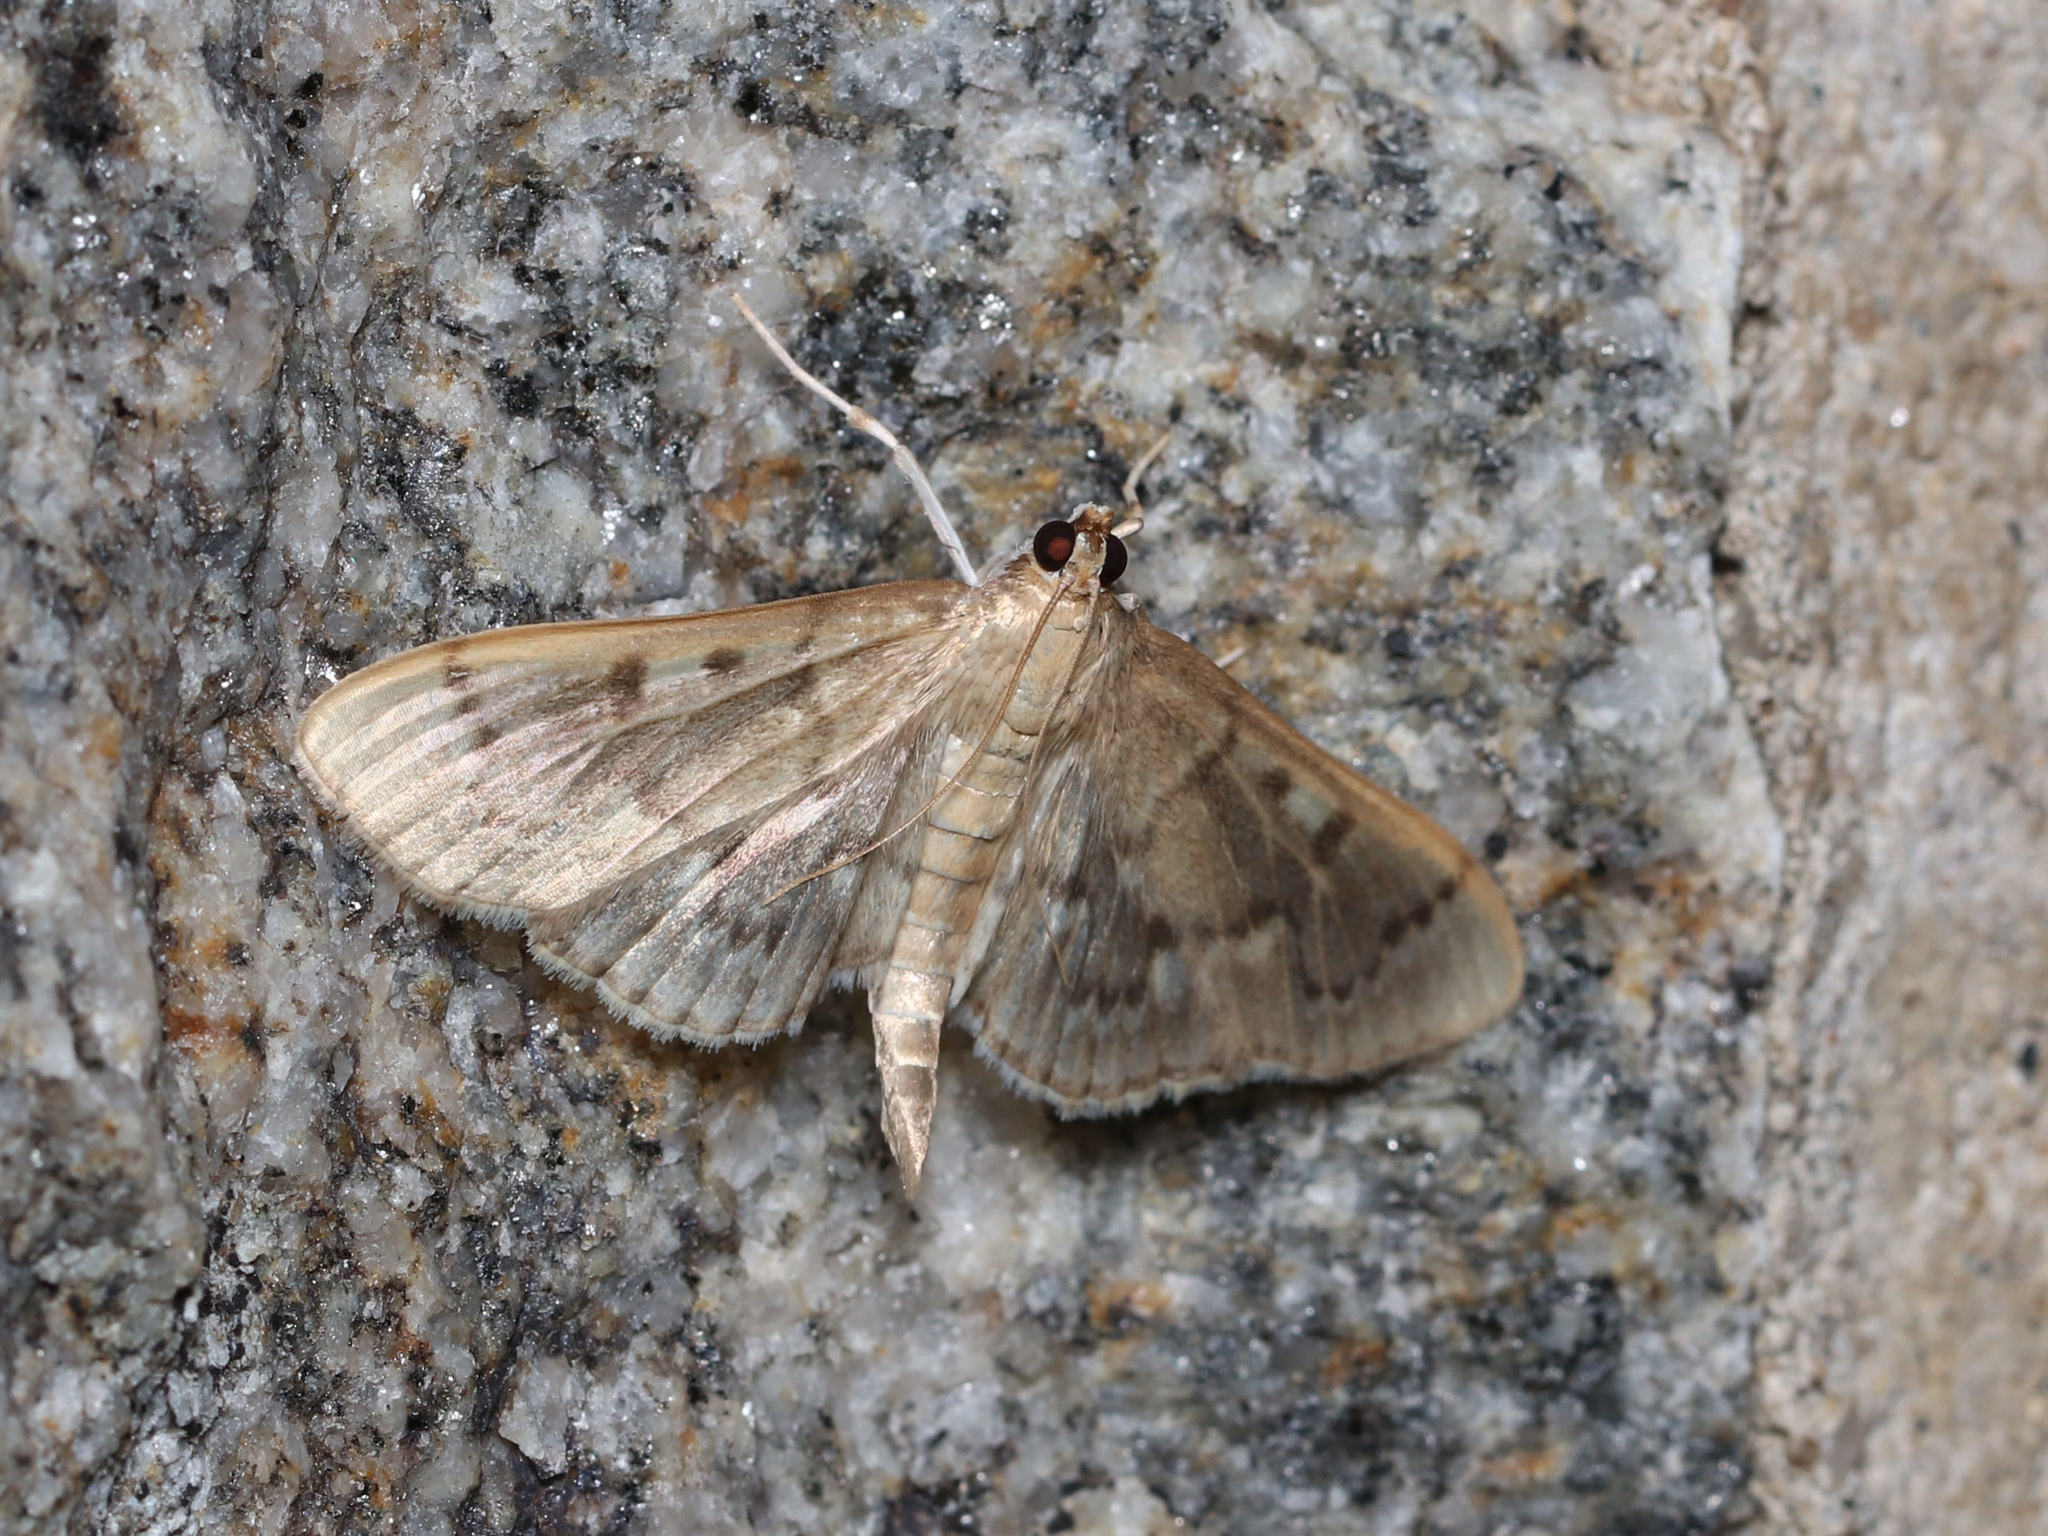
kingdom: Animalia
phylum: Arthropoda
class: Insecta
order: Lepidoptera
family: Crambidae
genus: Herpetogramma
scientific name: Herpetogramma aeglealis
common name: Serpentine webworm moth
